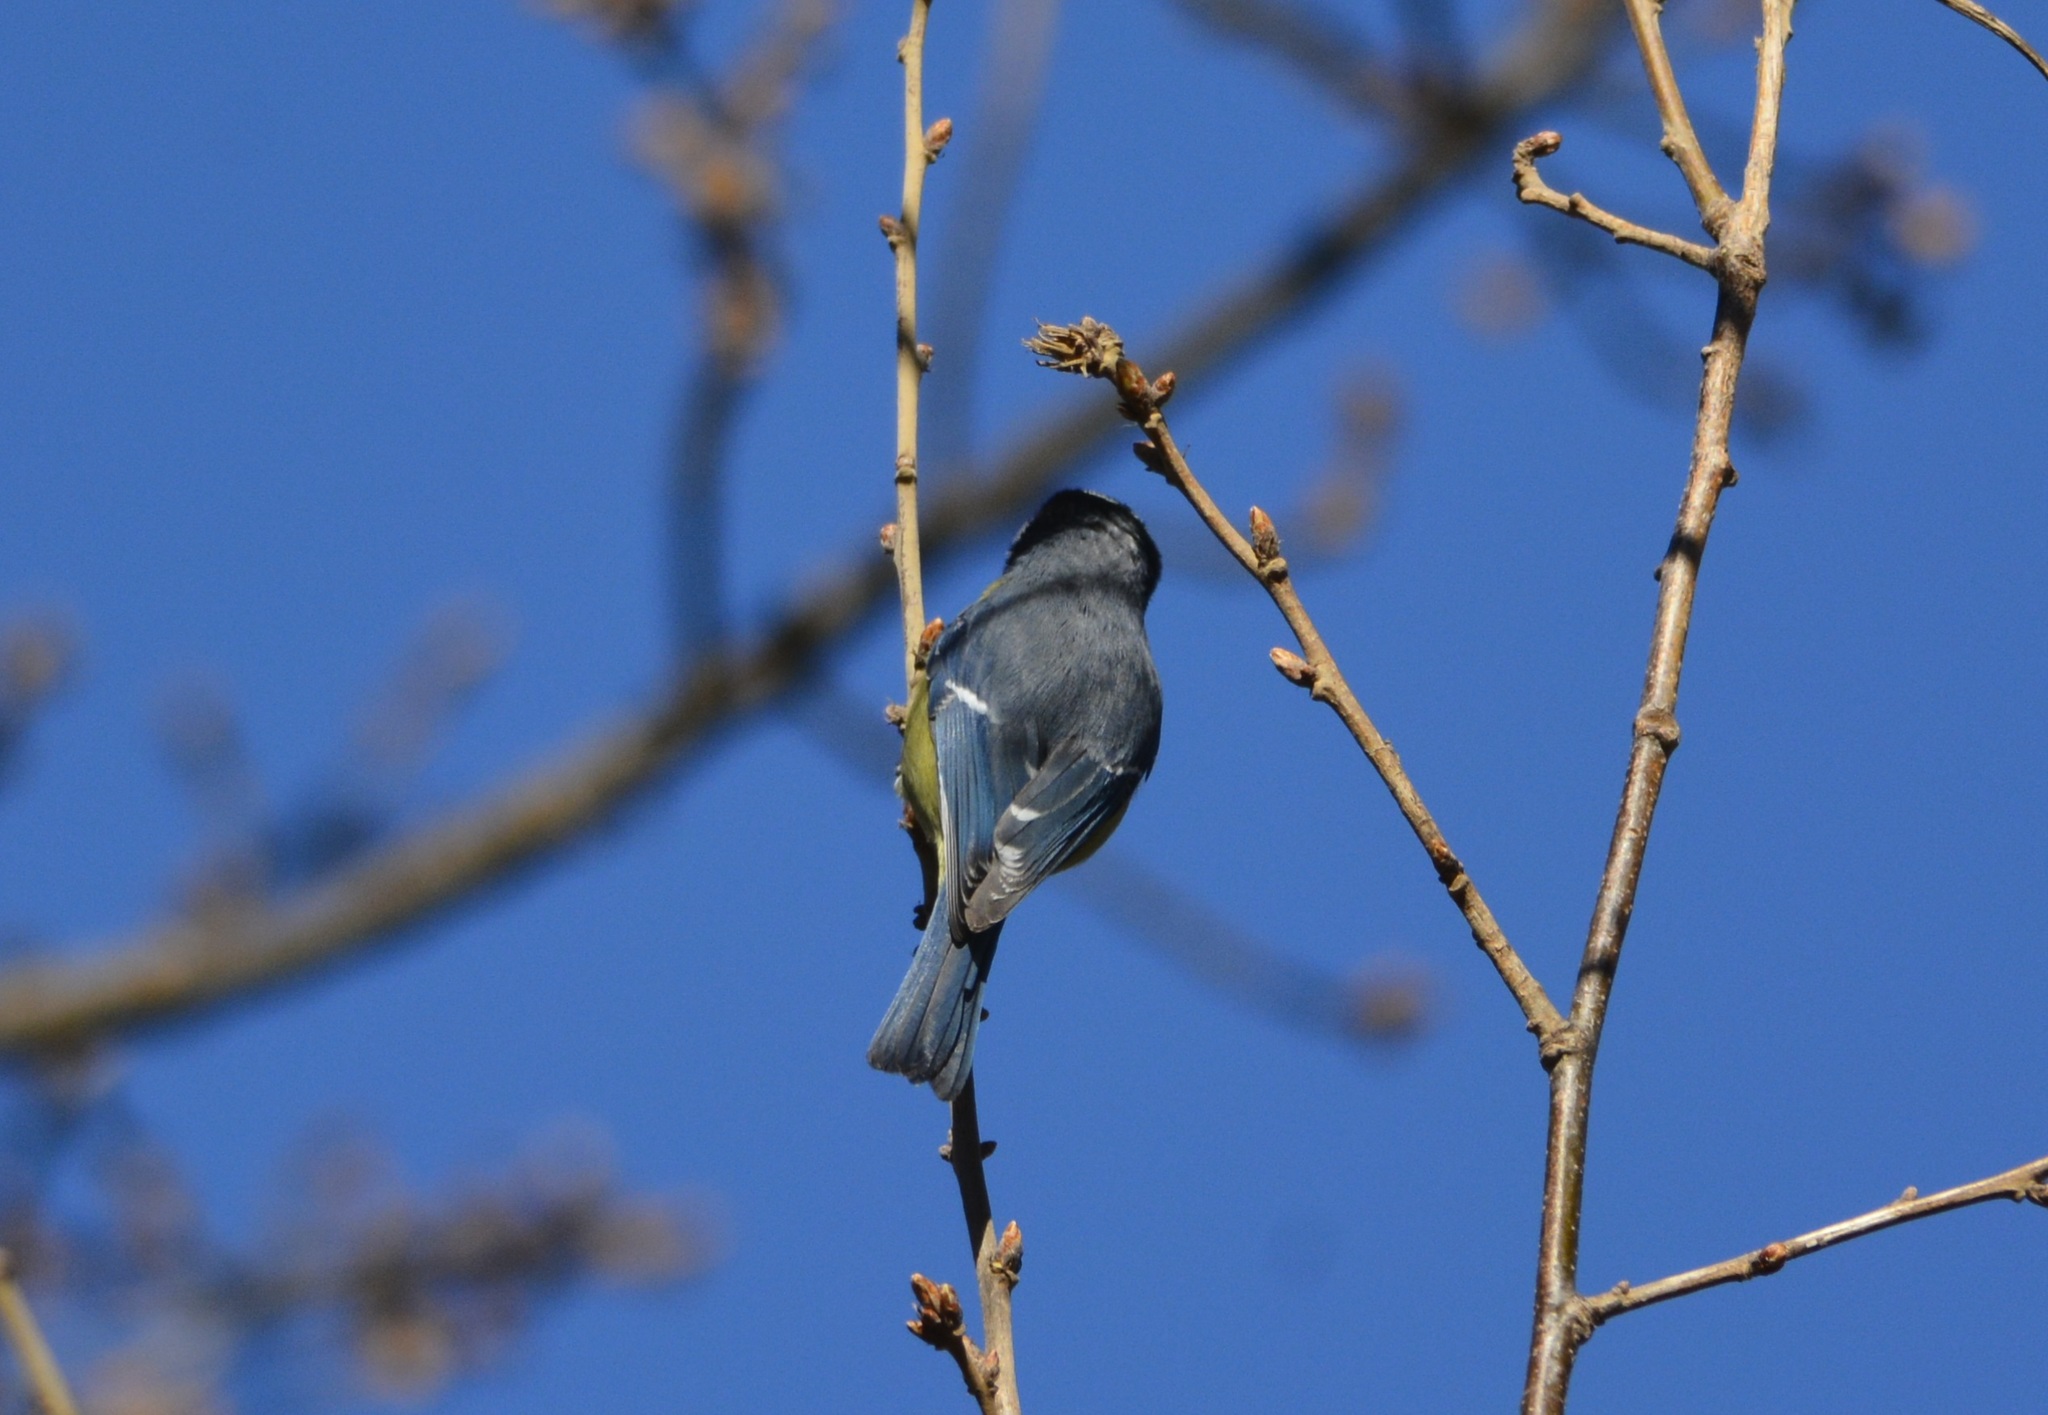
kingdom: Animalia
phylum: Chordata
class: Aves
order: Passeriformes
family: Paridae
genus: Cyanistes
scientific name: Cyanistes teneriffae
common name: African blue tit
